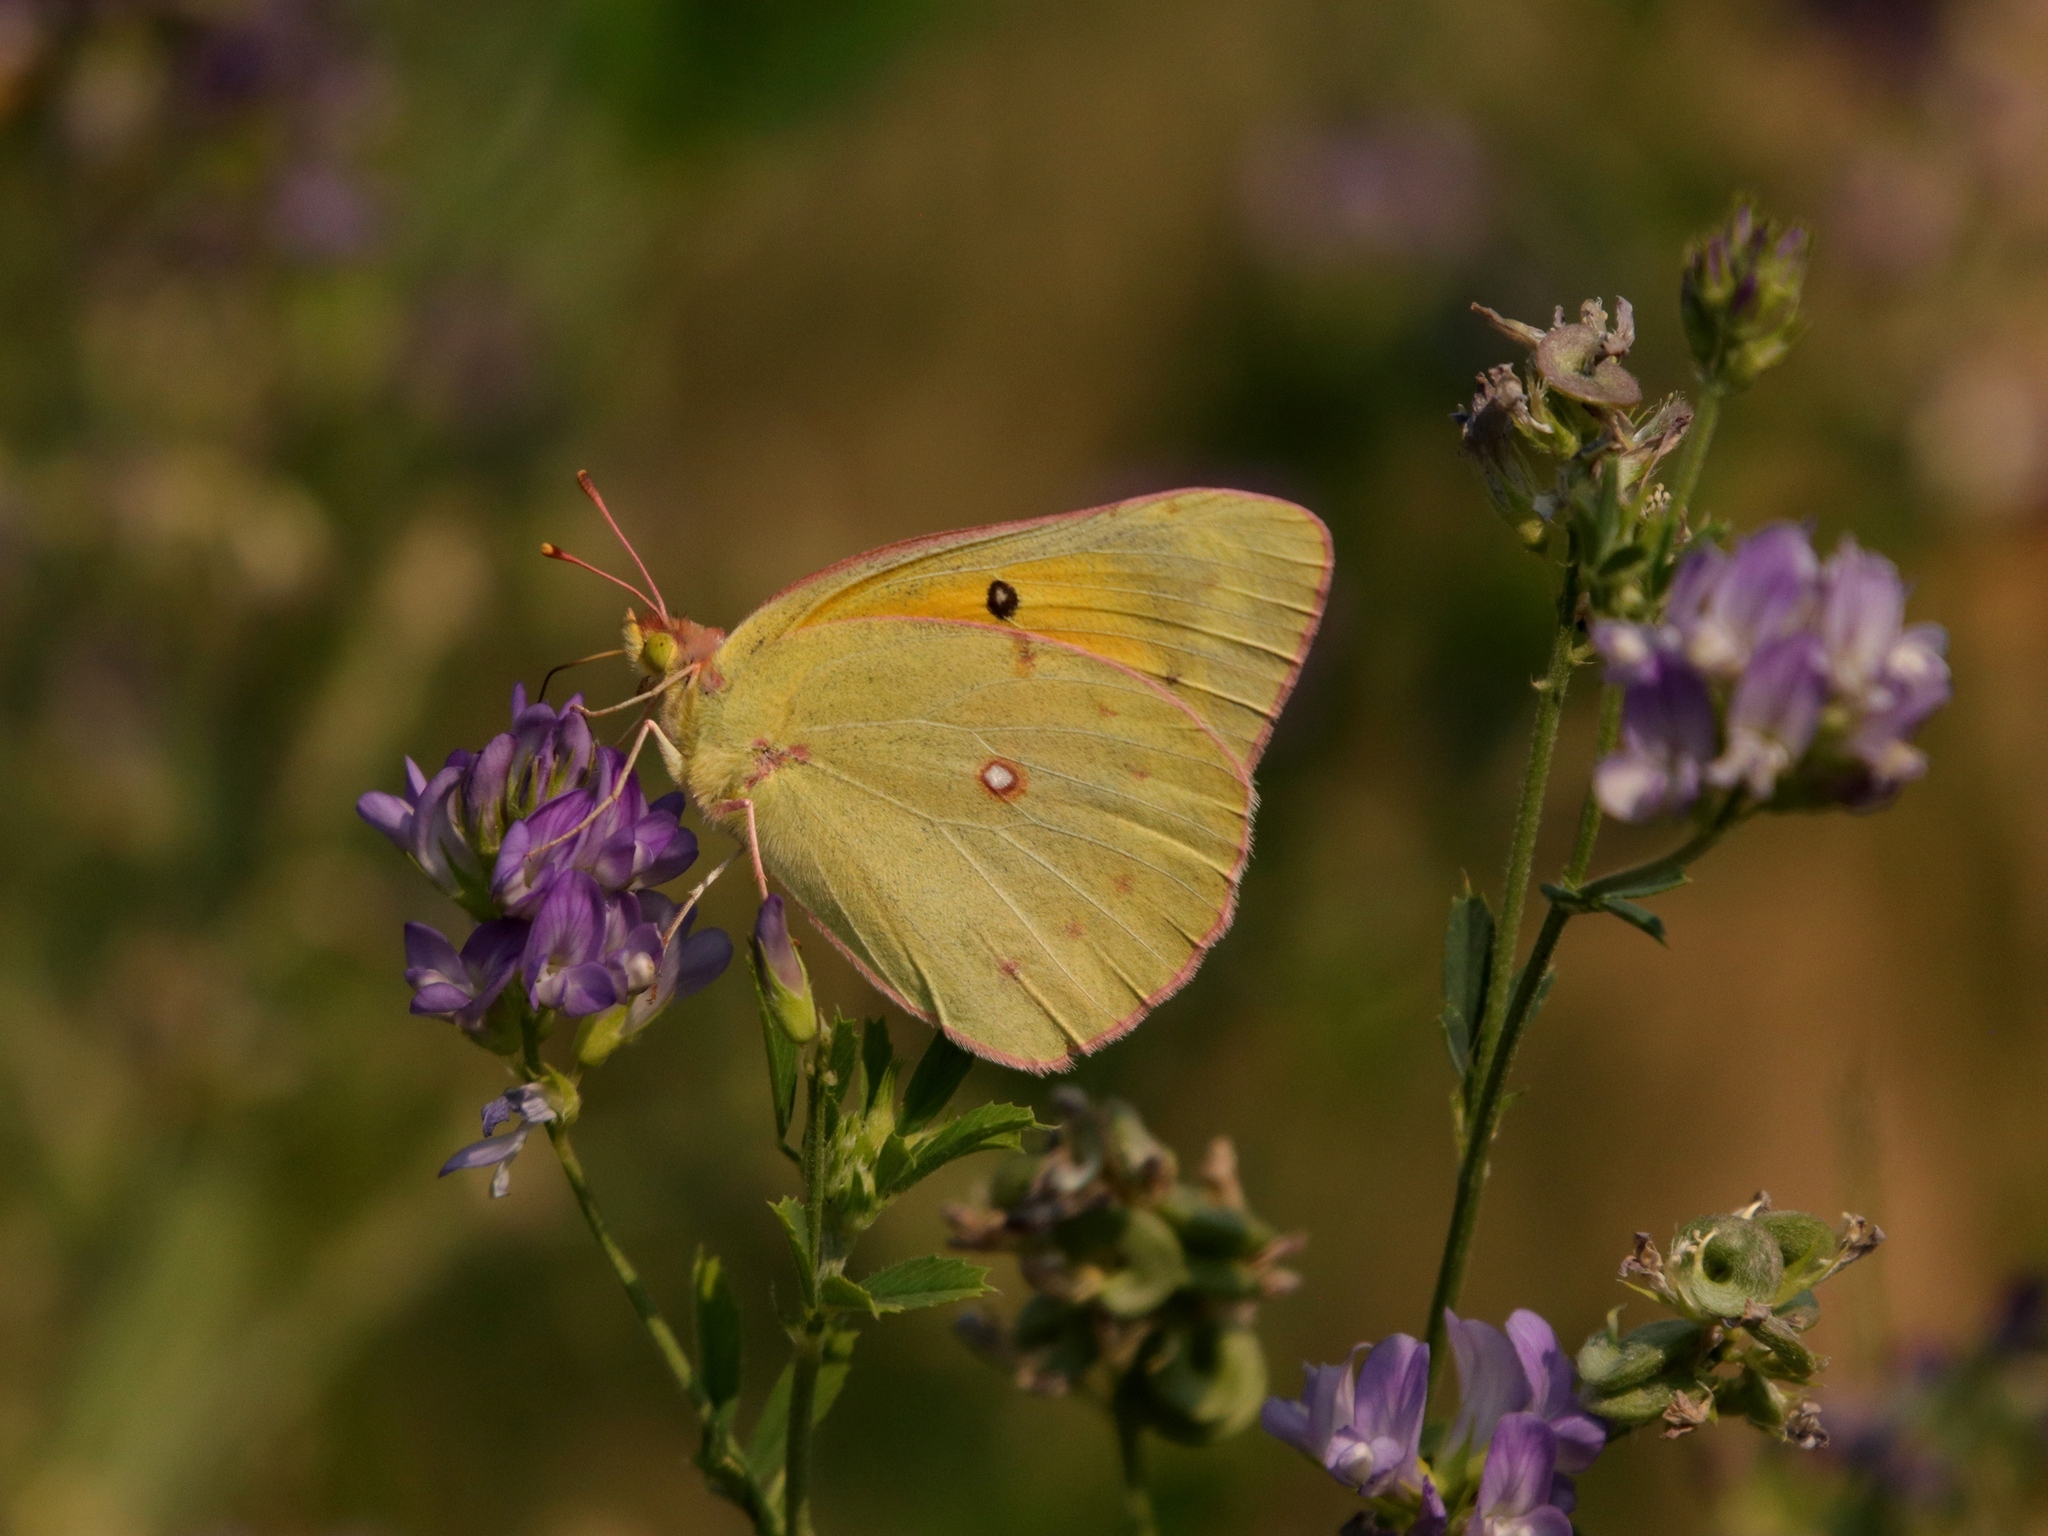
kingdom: Animalia
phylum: Arthropoda
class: Insecta
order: Lepidoptera
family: Pieridae
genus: Colias
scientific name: Colias eurytheme
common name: Alfalfa butterfly
